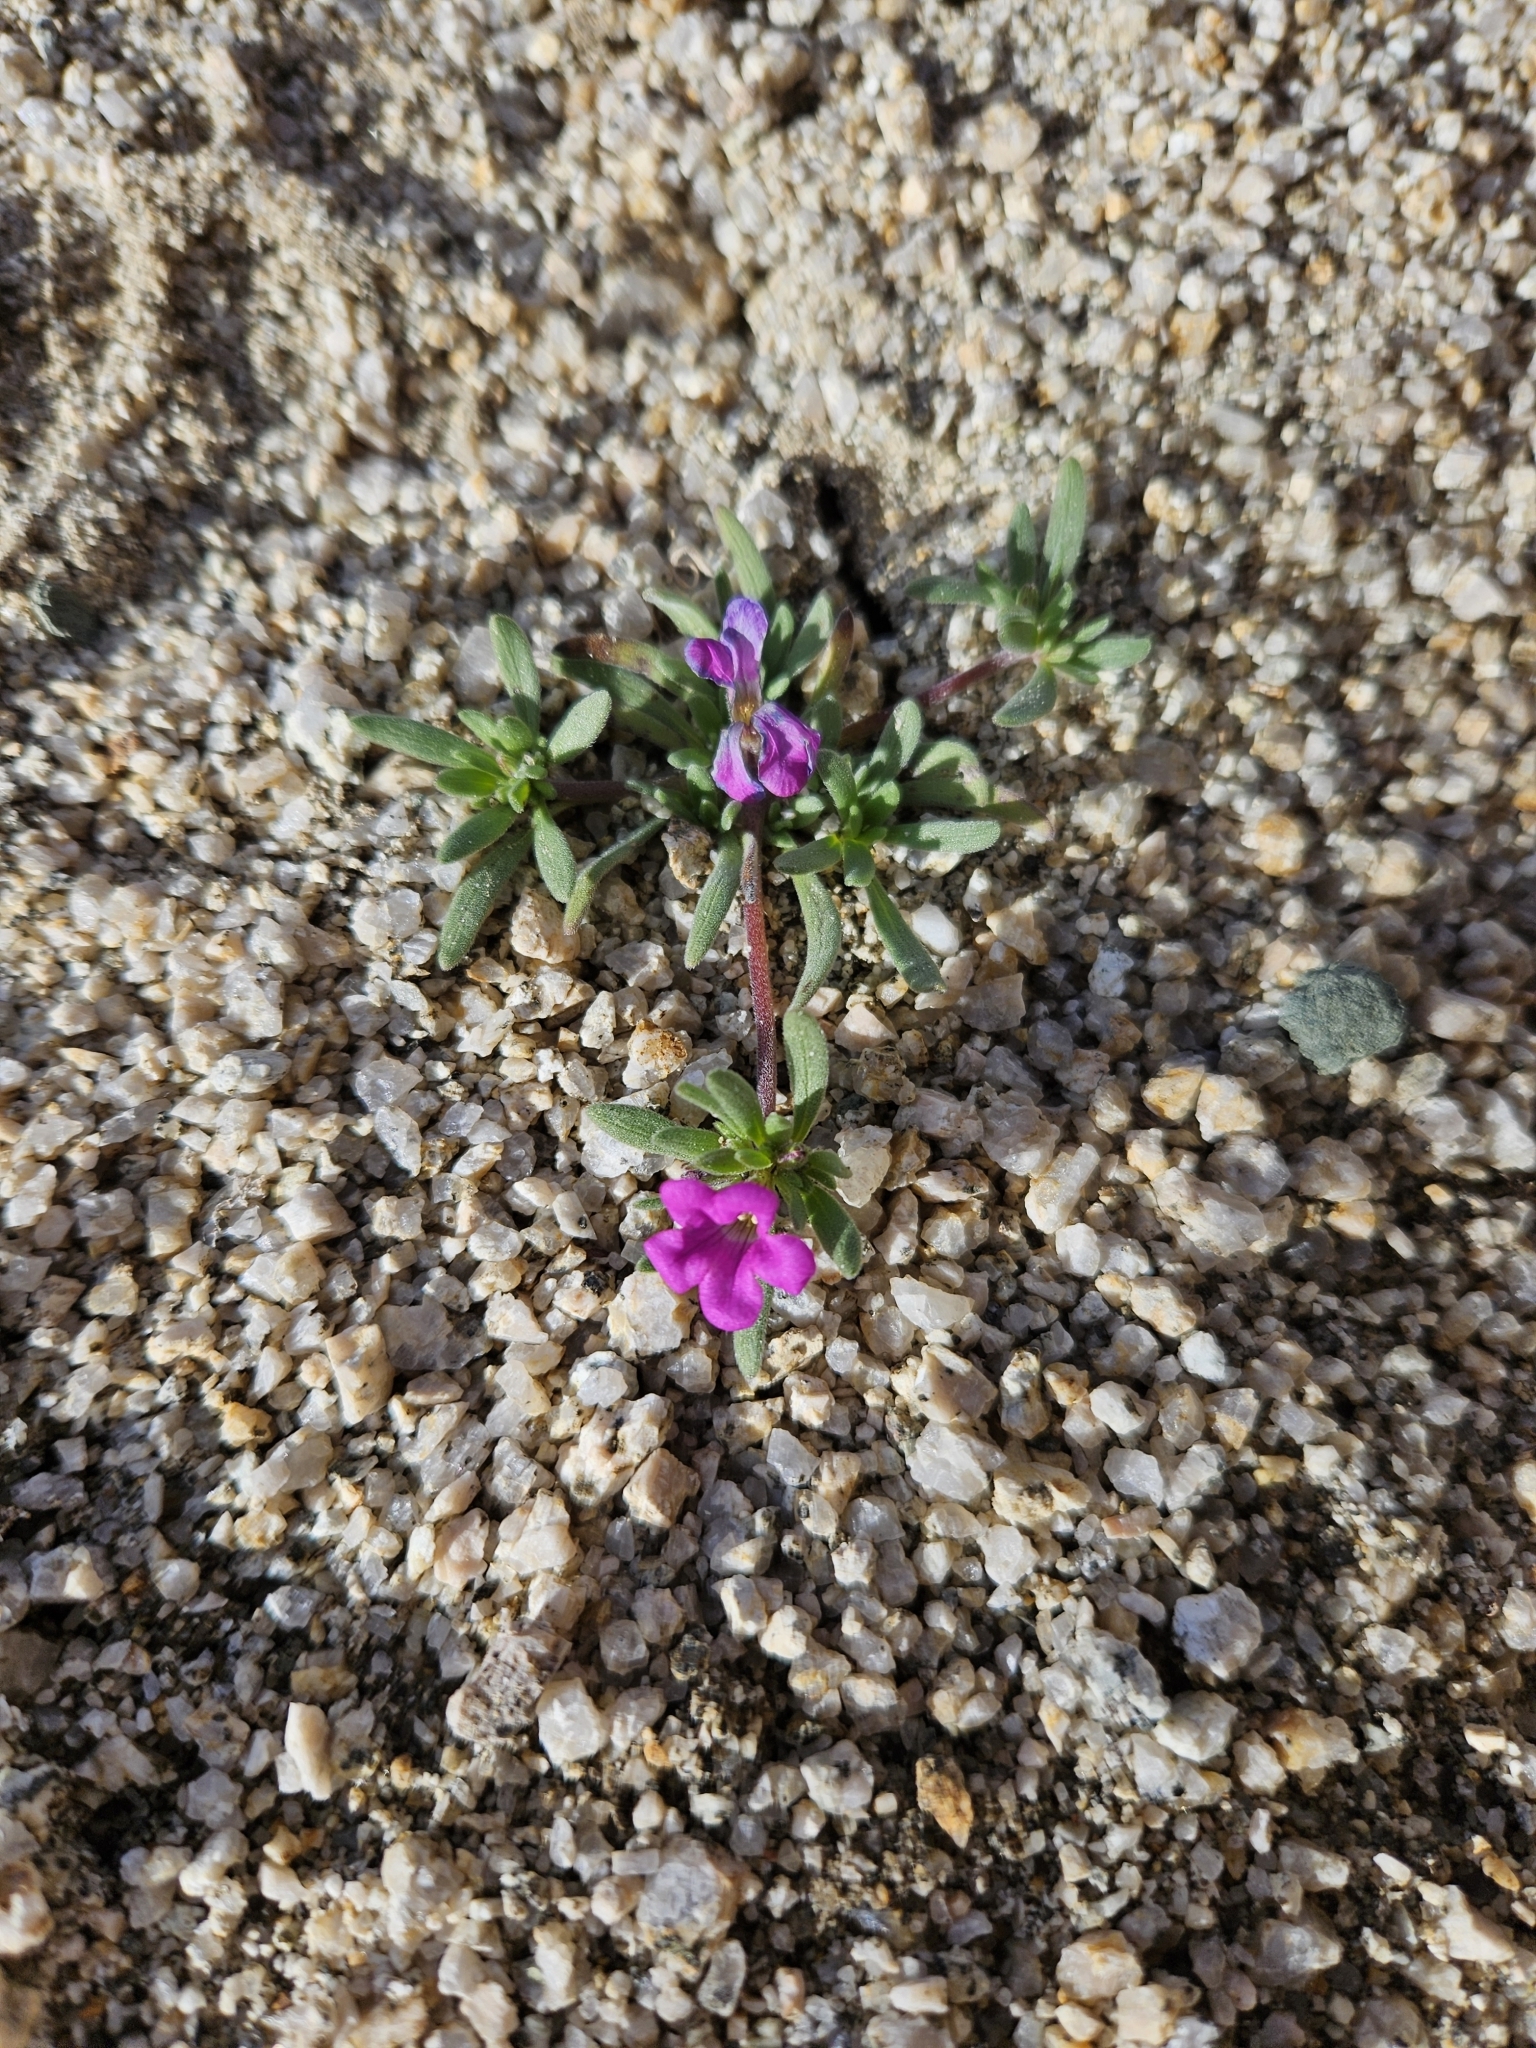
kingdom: Plantae
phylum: Tracheophyta
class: Magnoliopsida
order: Boraginales
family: Namaceae
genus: Nama
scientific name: Nama demissa
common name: Leafy nama
